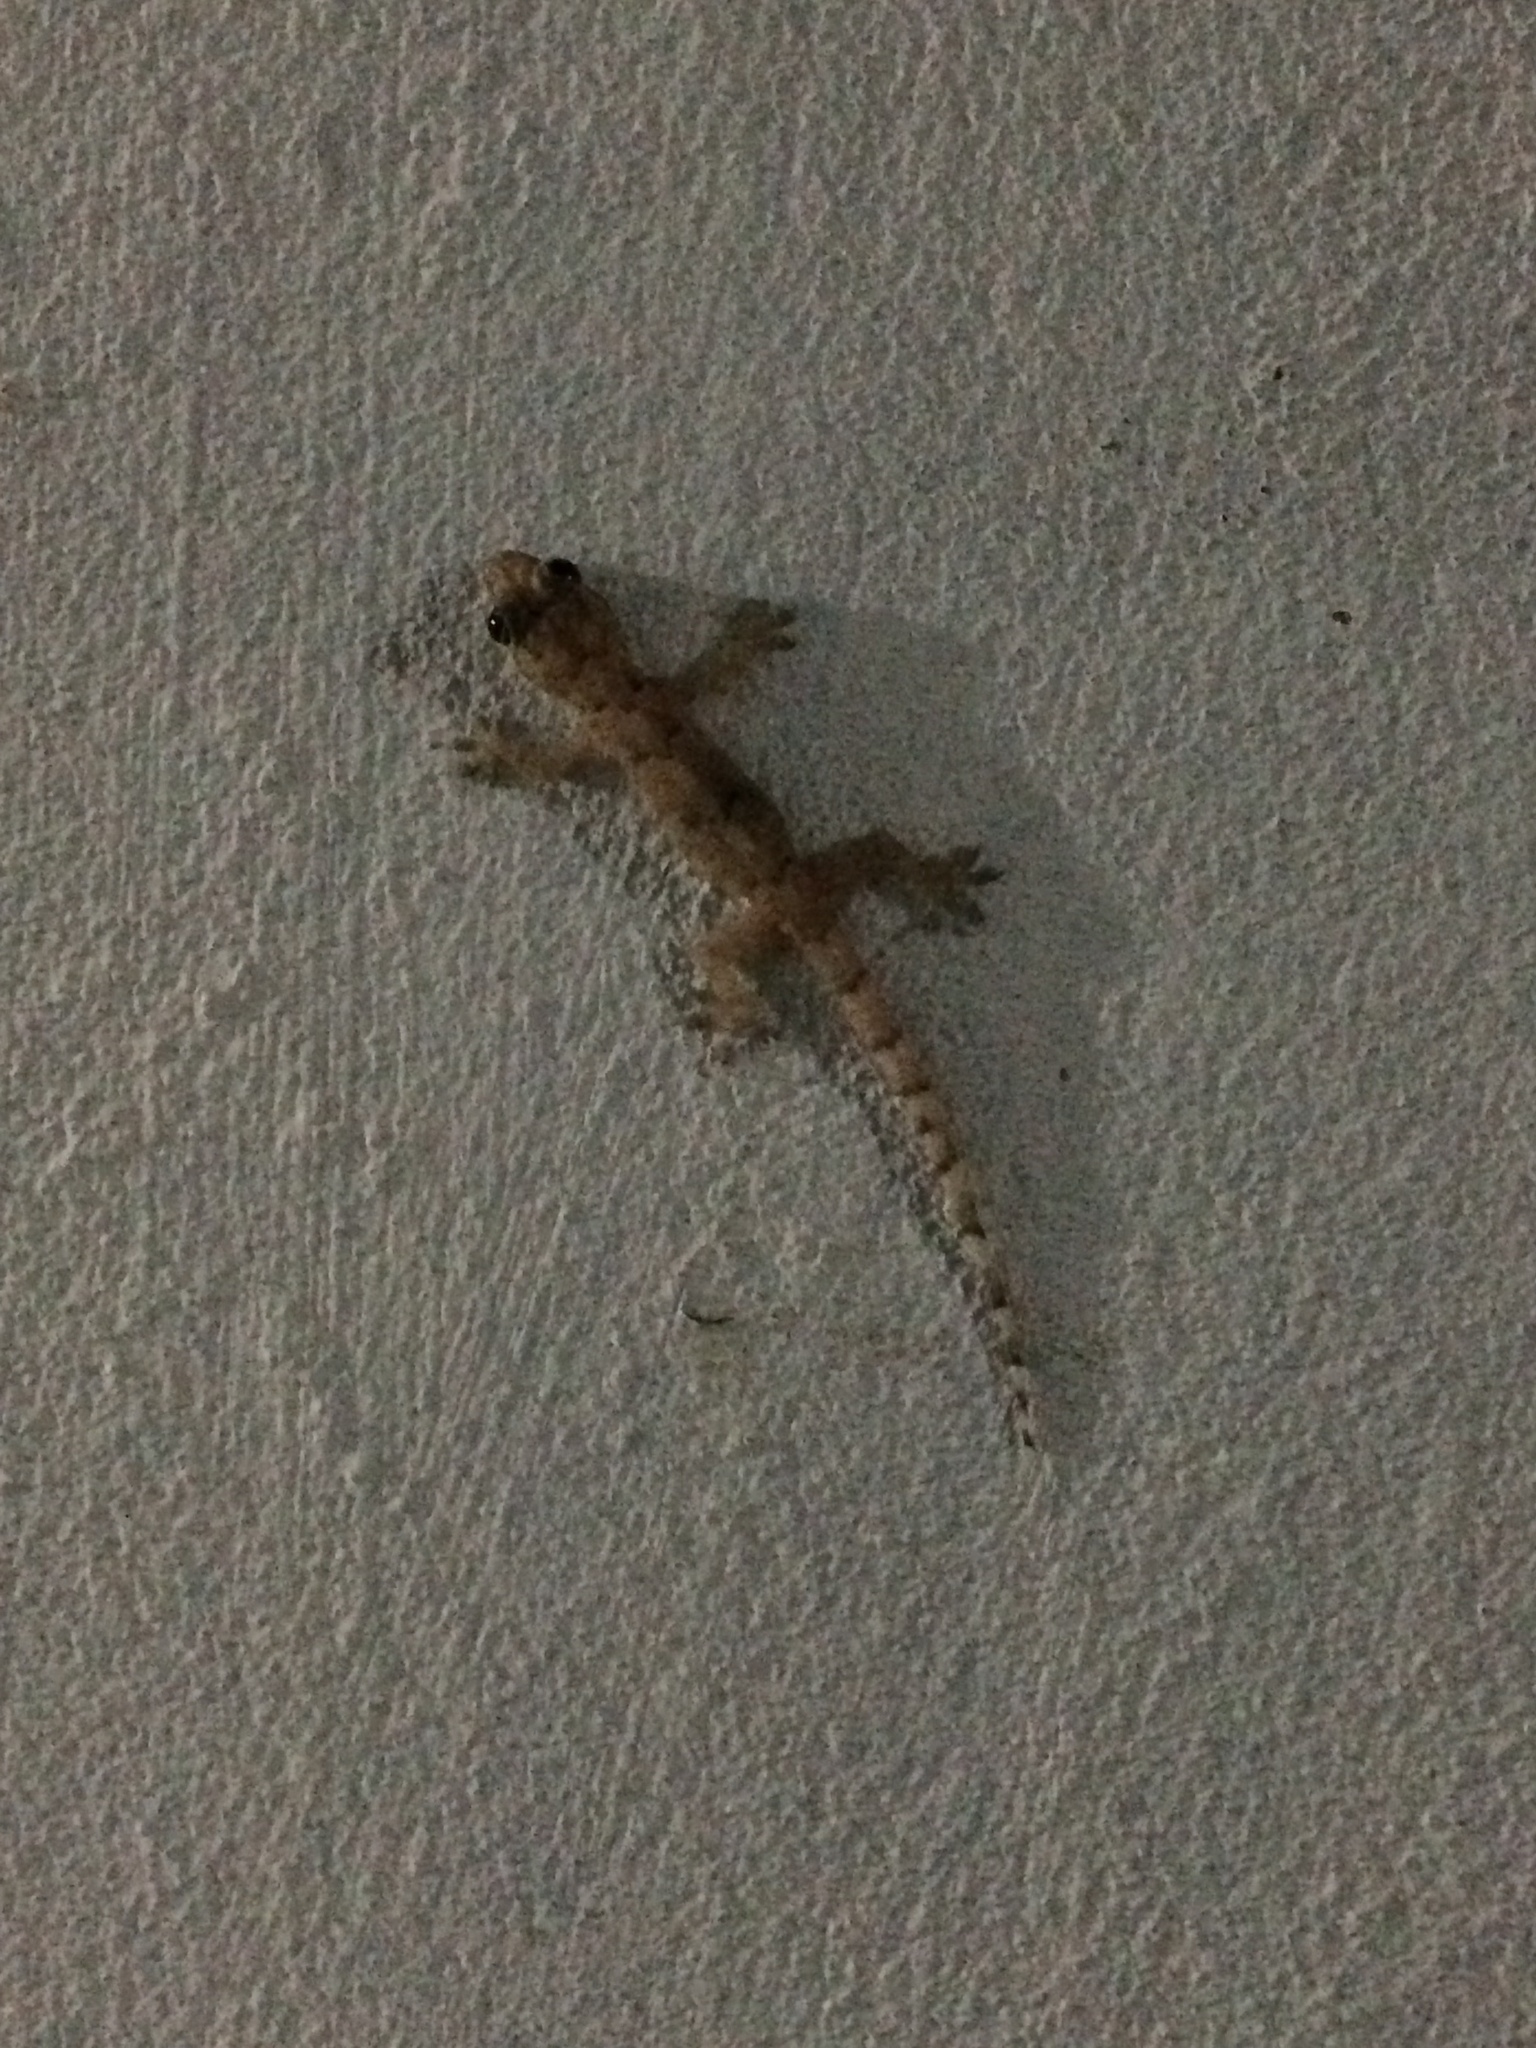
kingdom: Animalia
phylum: Chordata
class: Squamata
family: Gekkonidae
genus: Hemidactylus
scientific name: Hemidactylus mabouia
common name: House gecko
